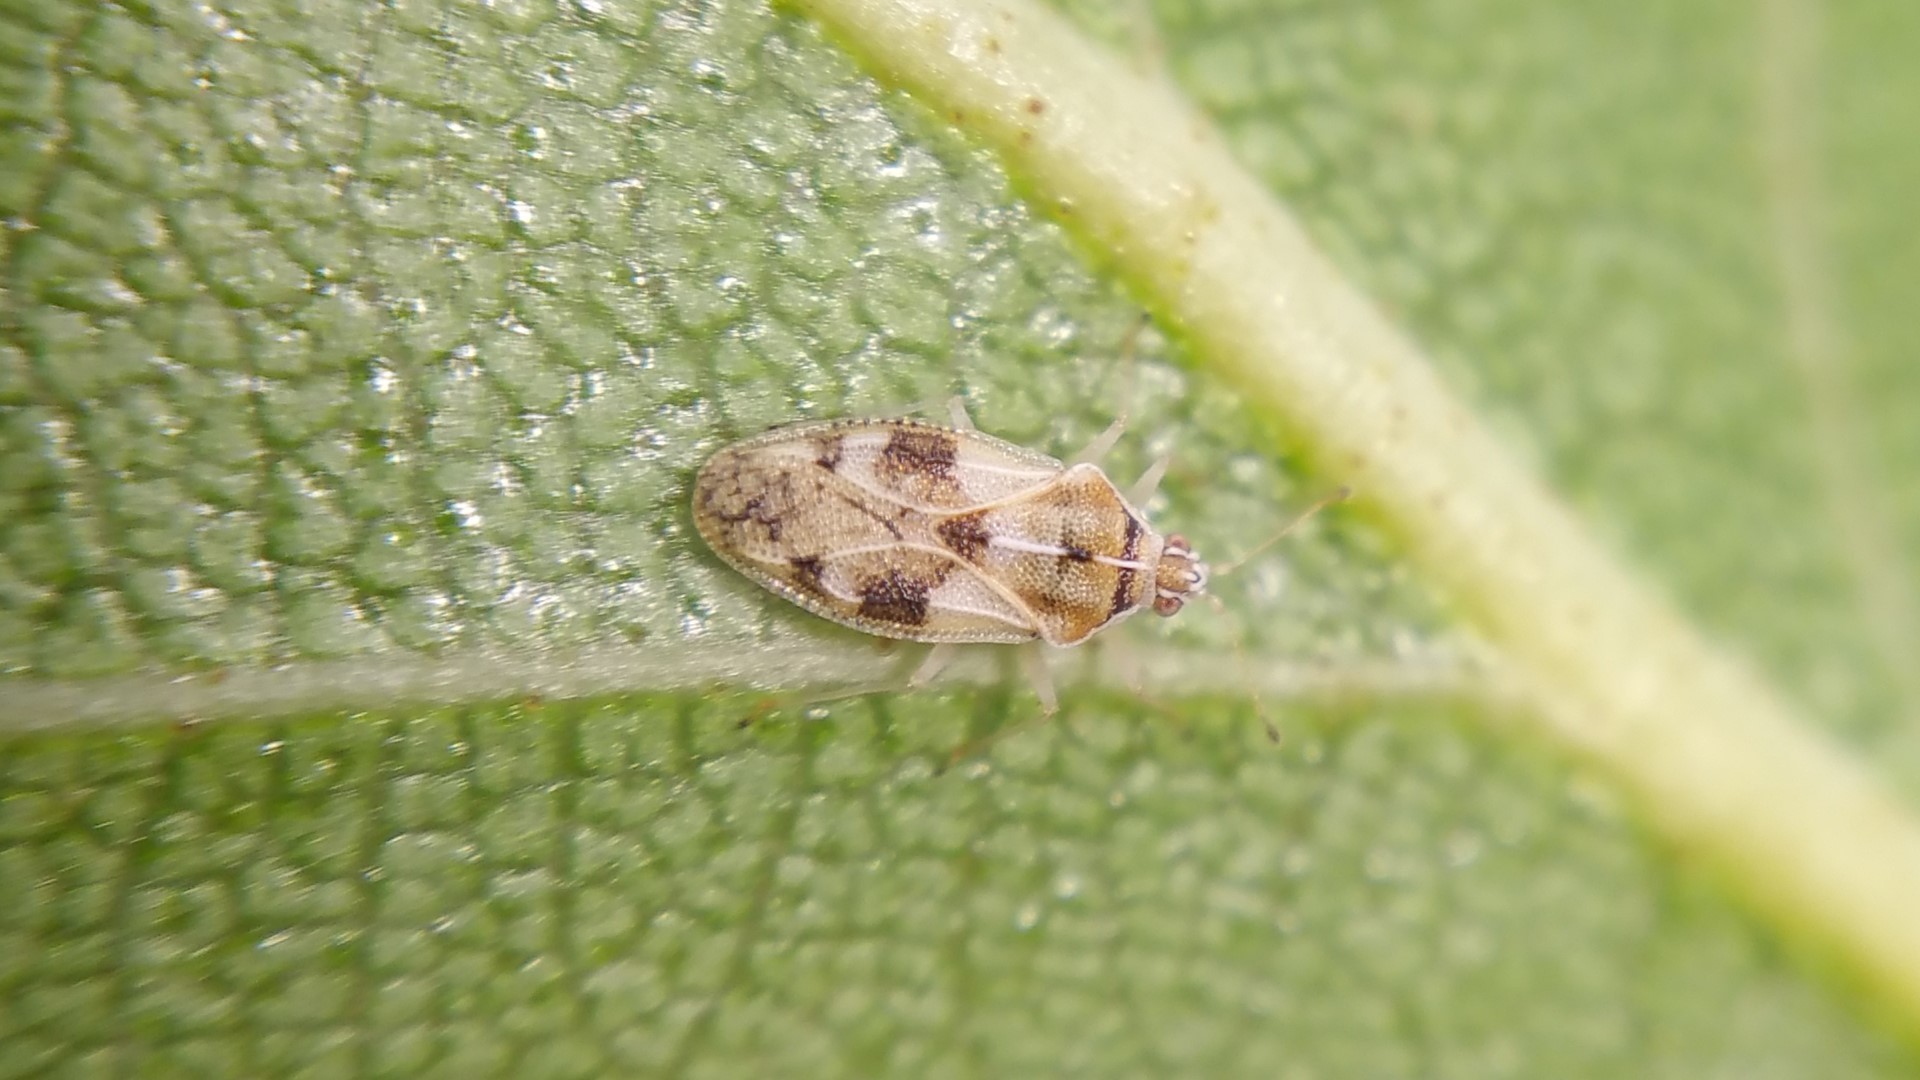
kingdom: Animalia
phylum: Arthropoda
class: Insecta
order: Hemiptera
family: Tingidae
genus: Monosteira
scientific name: Monosteira unicostata
